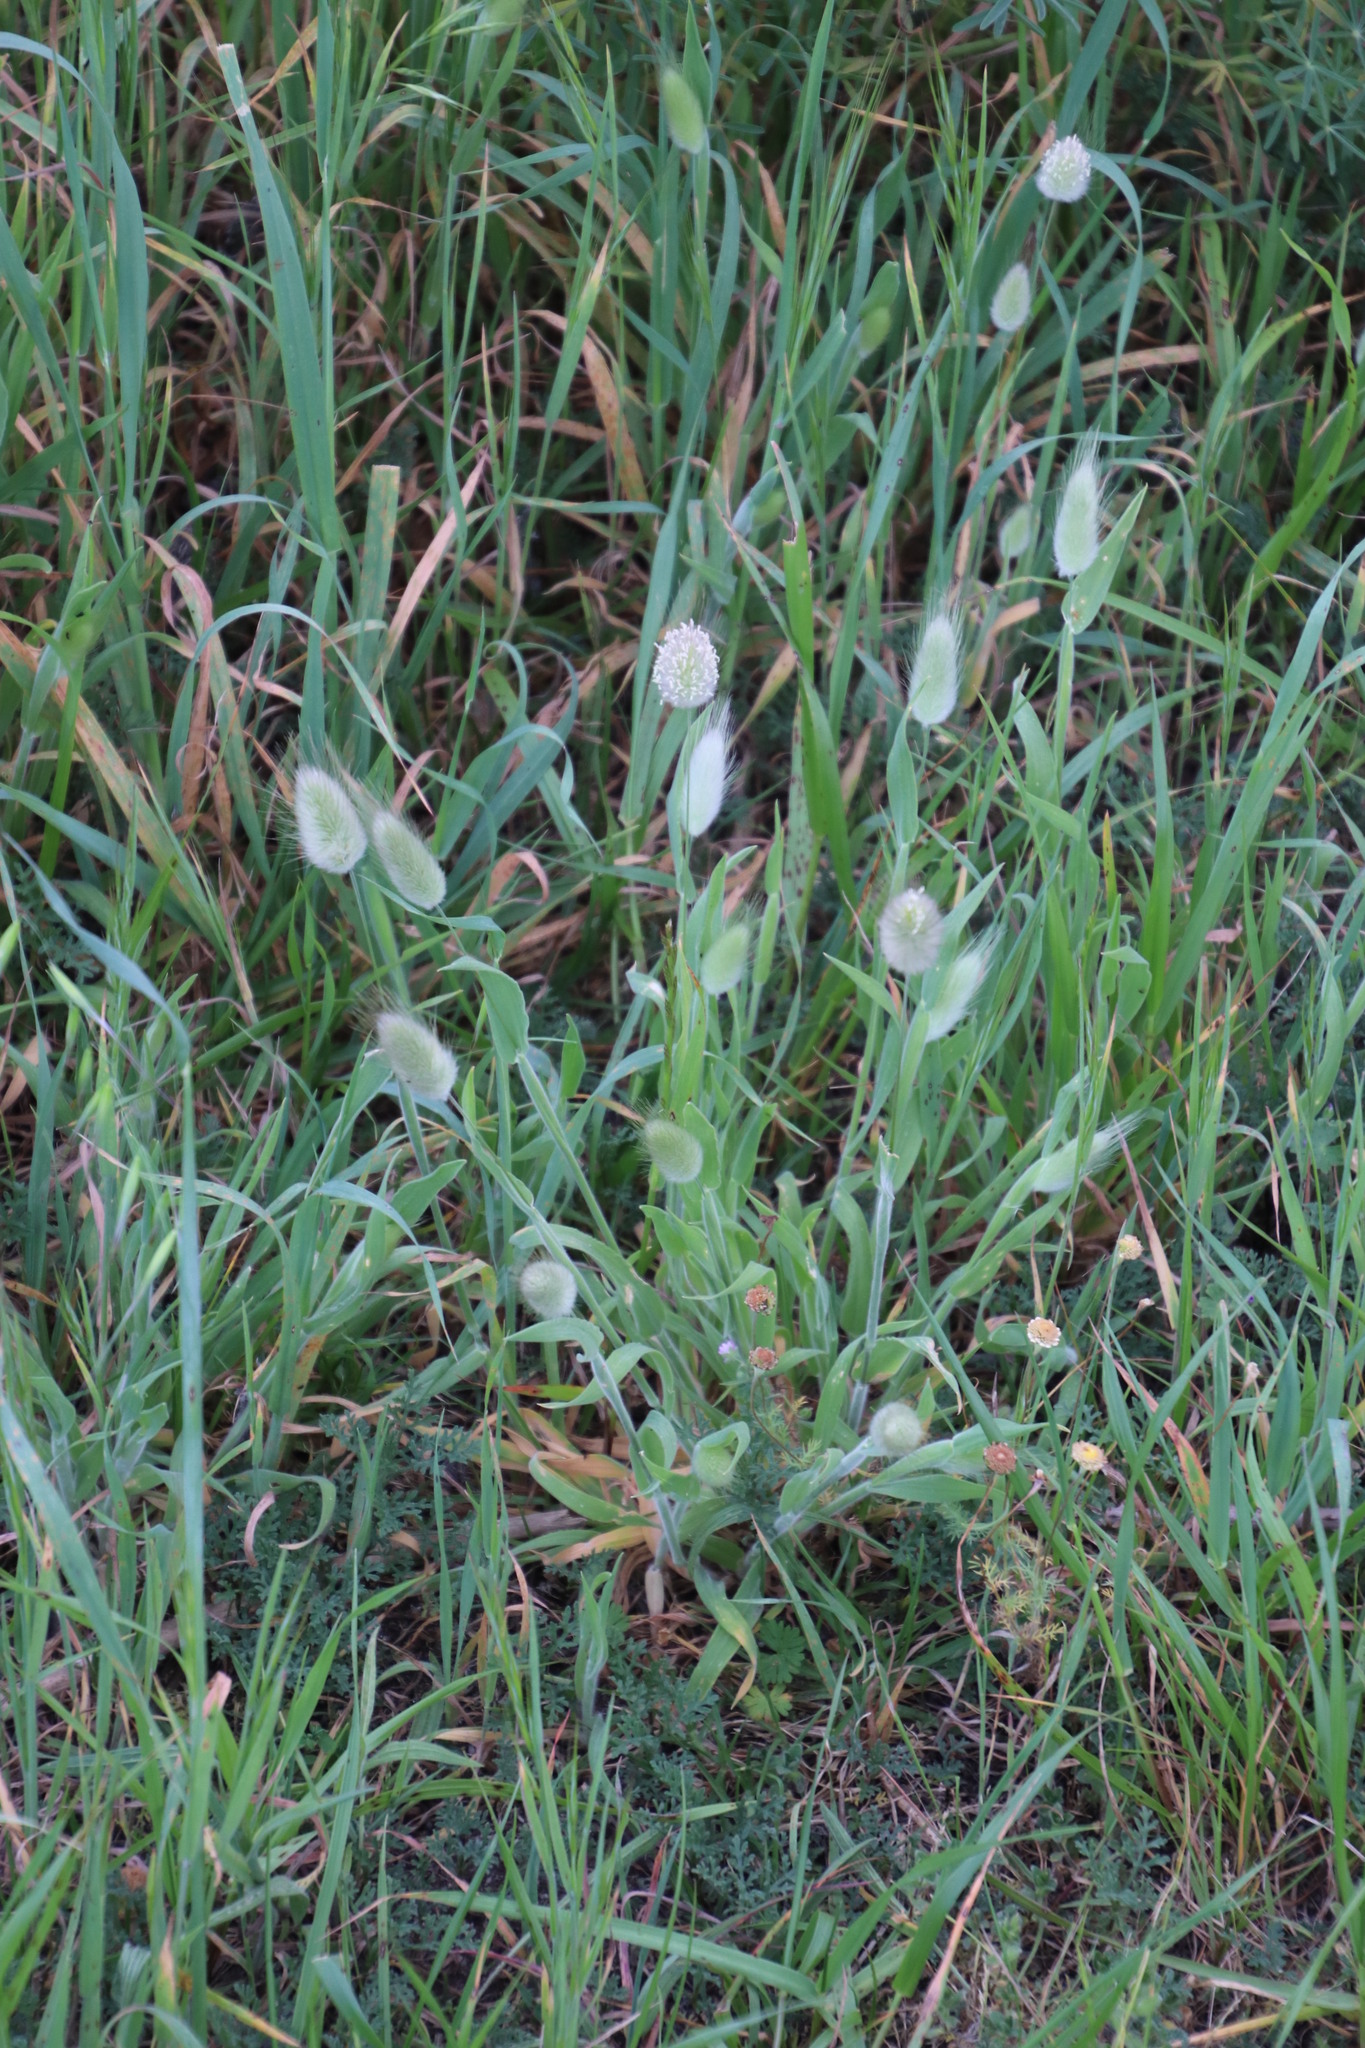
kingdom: Plantae
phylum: Tracheophyta
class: Liliopsida
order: Poales
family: Poaceae
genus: Lagurus
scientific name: Lagurus ovatus
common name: Hare's-tail
